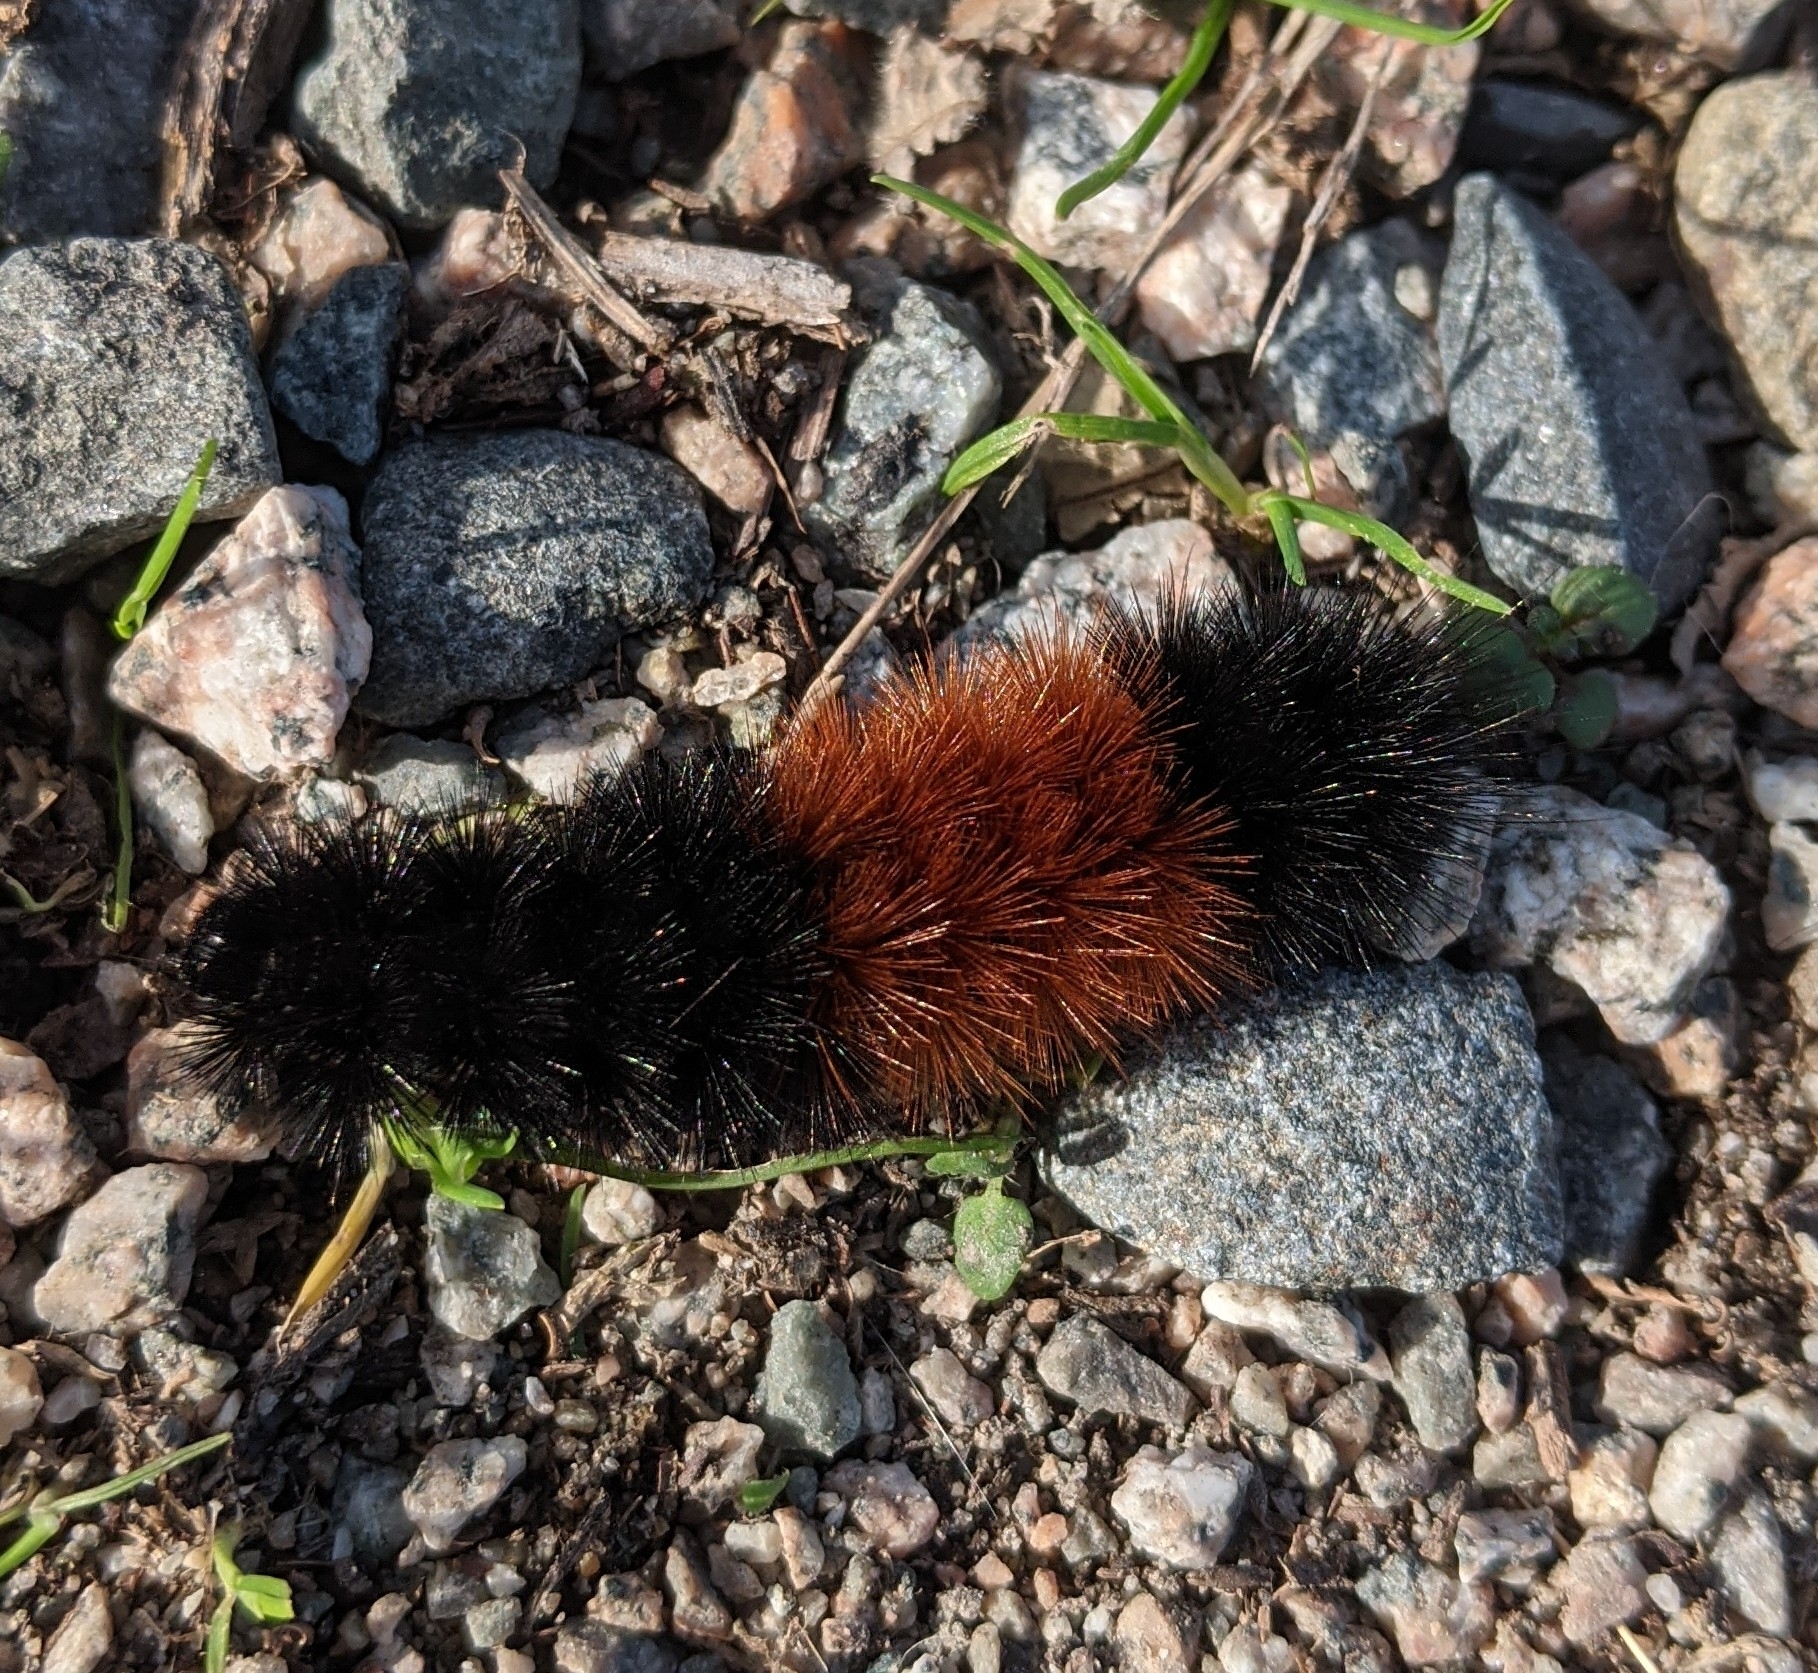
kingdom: Animalia
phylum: Arthropoda
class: Insecta
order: Lepidoptera
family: Erebidae
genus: Pyrrharctia
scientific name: Pyrrharctia isabella
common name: Isabella tiger moth
